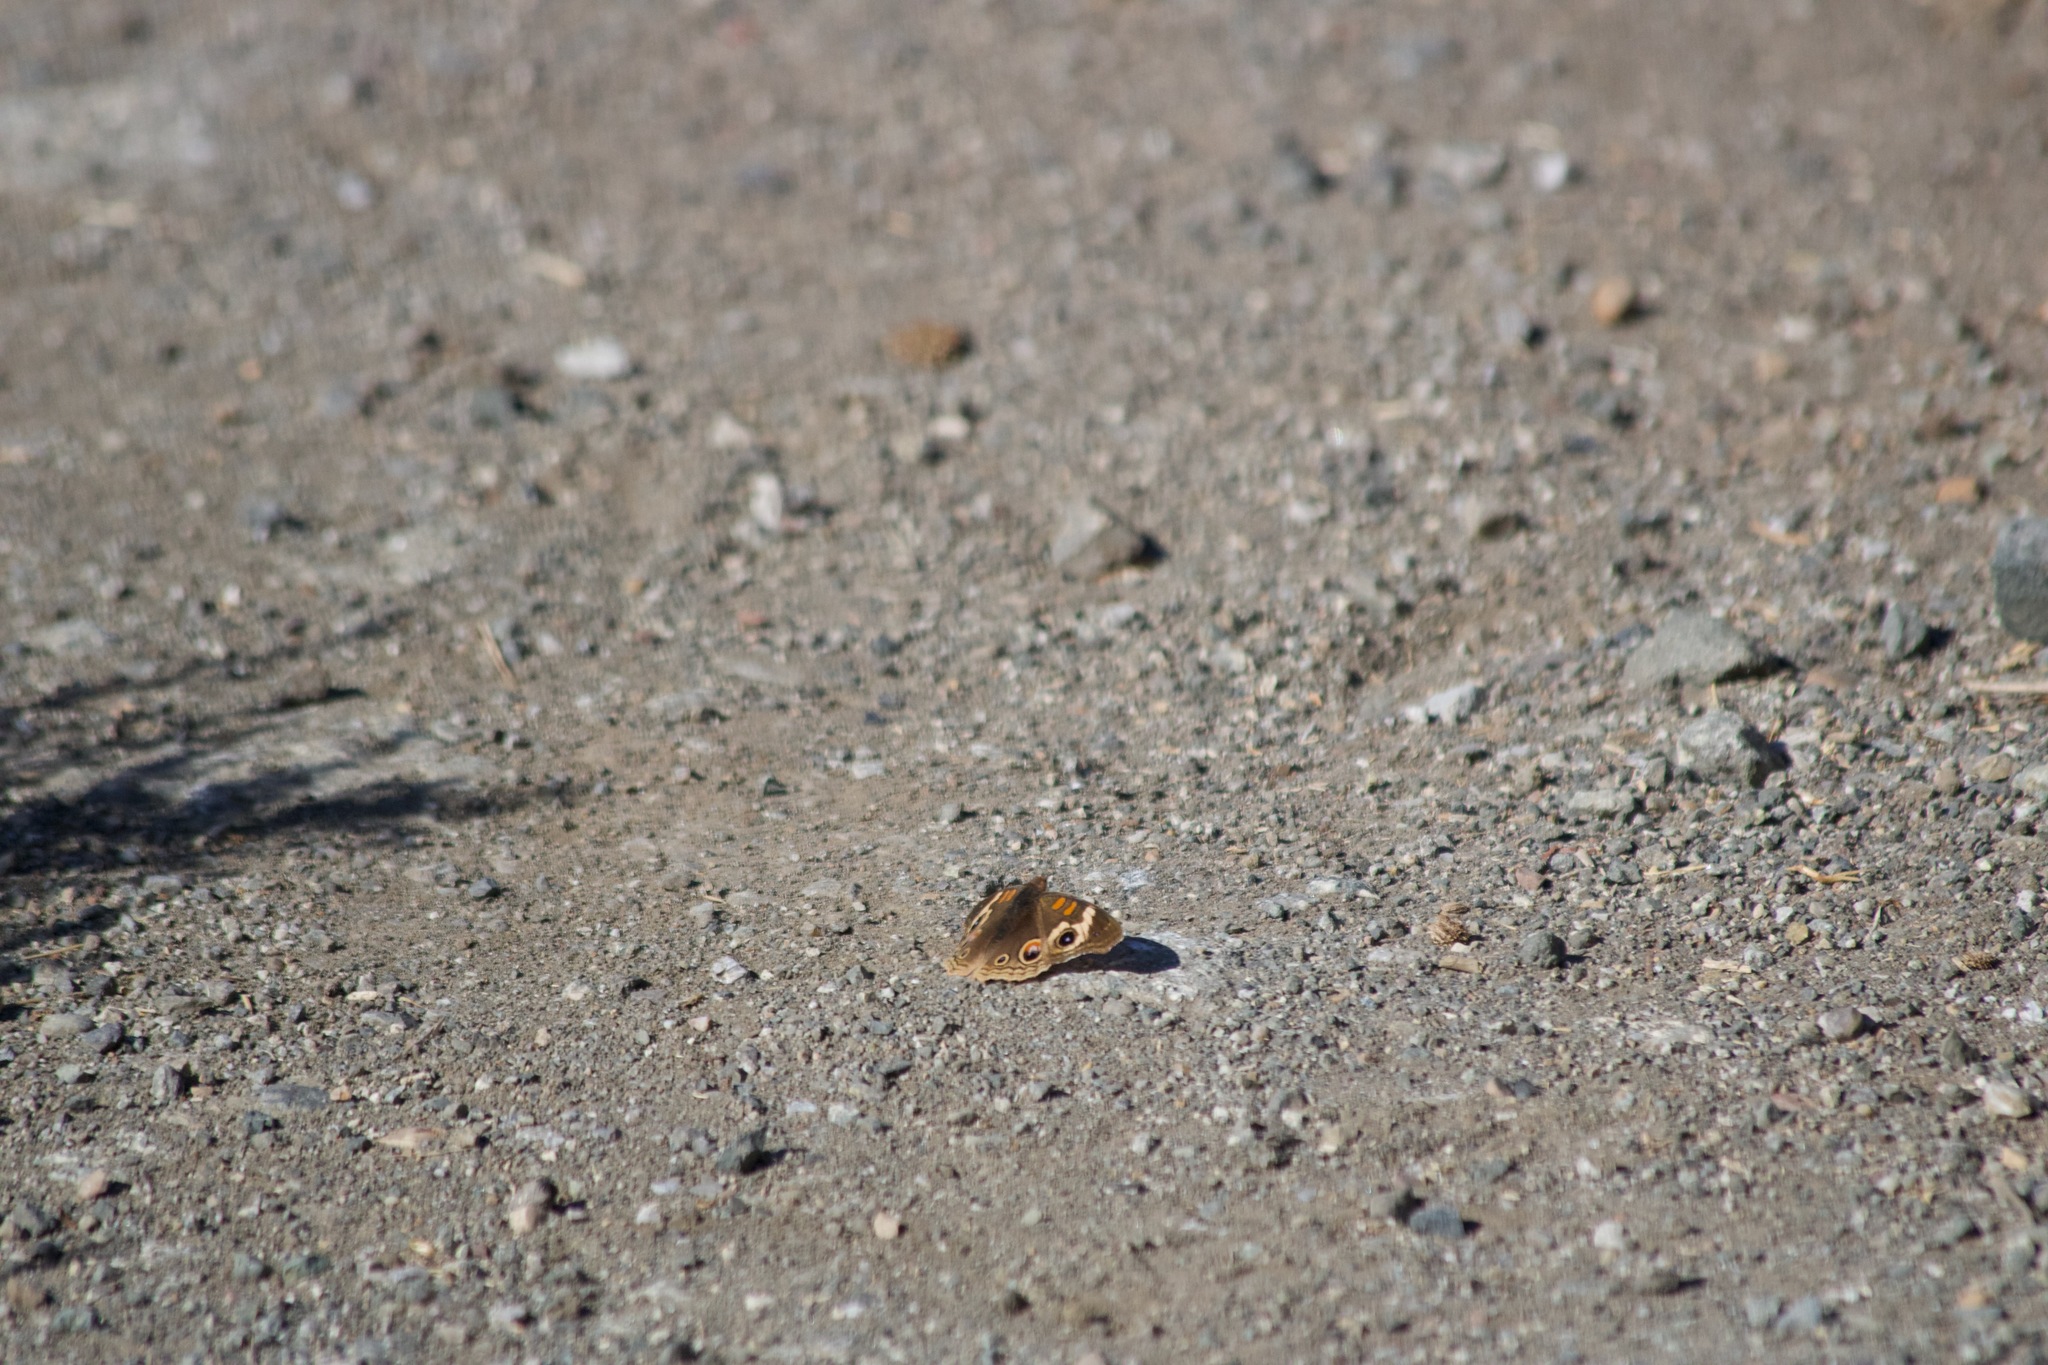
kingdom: Animalia
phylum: Arthropoda
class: Insecta
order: Lepidoptera
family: Nymphalidae
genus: Junonia
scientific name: Junonia grisea
